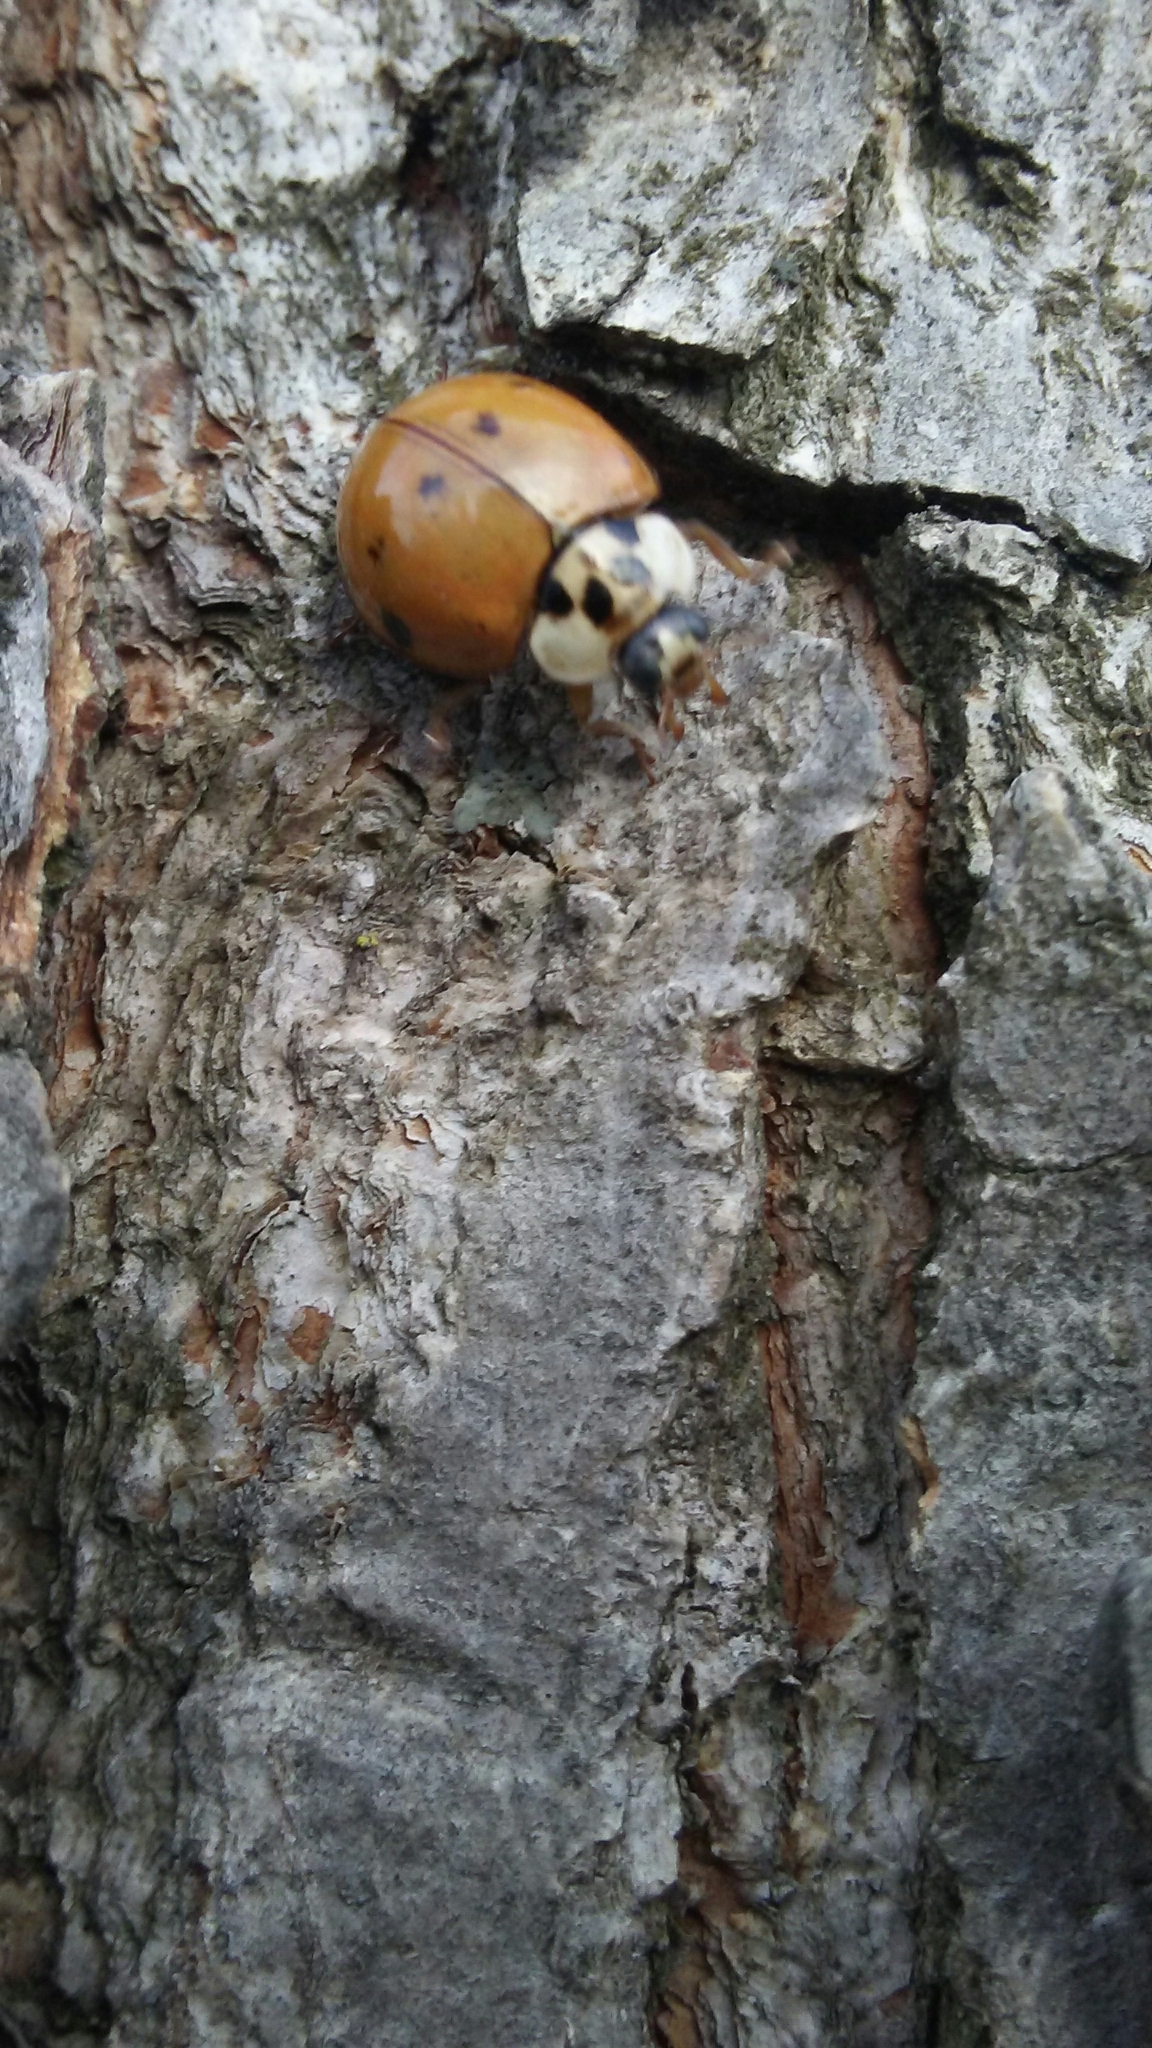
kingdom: Animalia
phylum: Arthropoda
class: Insecta
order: Coleoptera
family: Coccinellidae
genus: Harmonia
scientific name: Harmonia axyridis
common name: Harlequin ladybird
